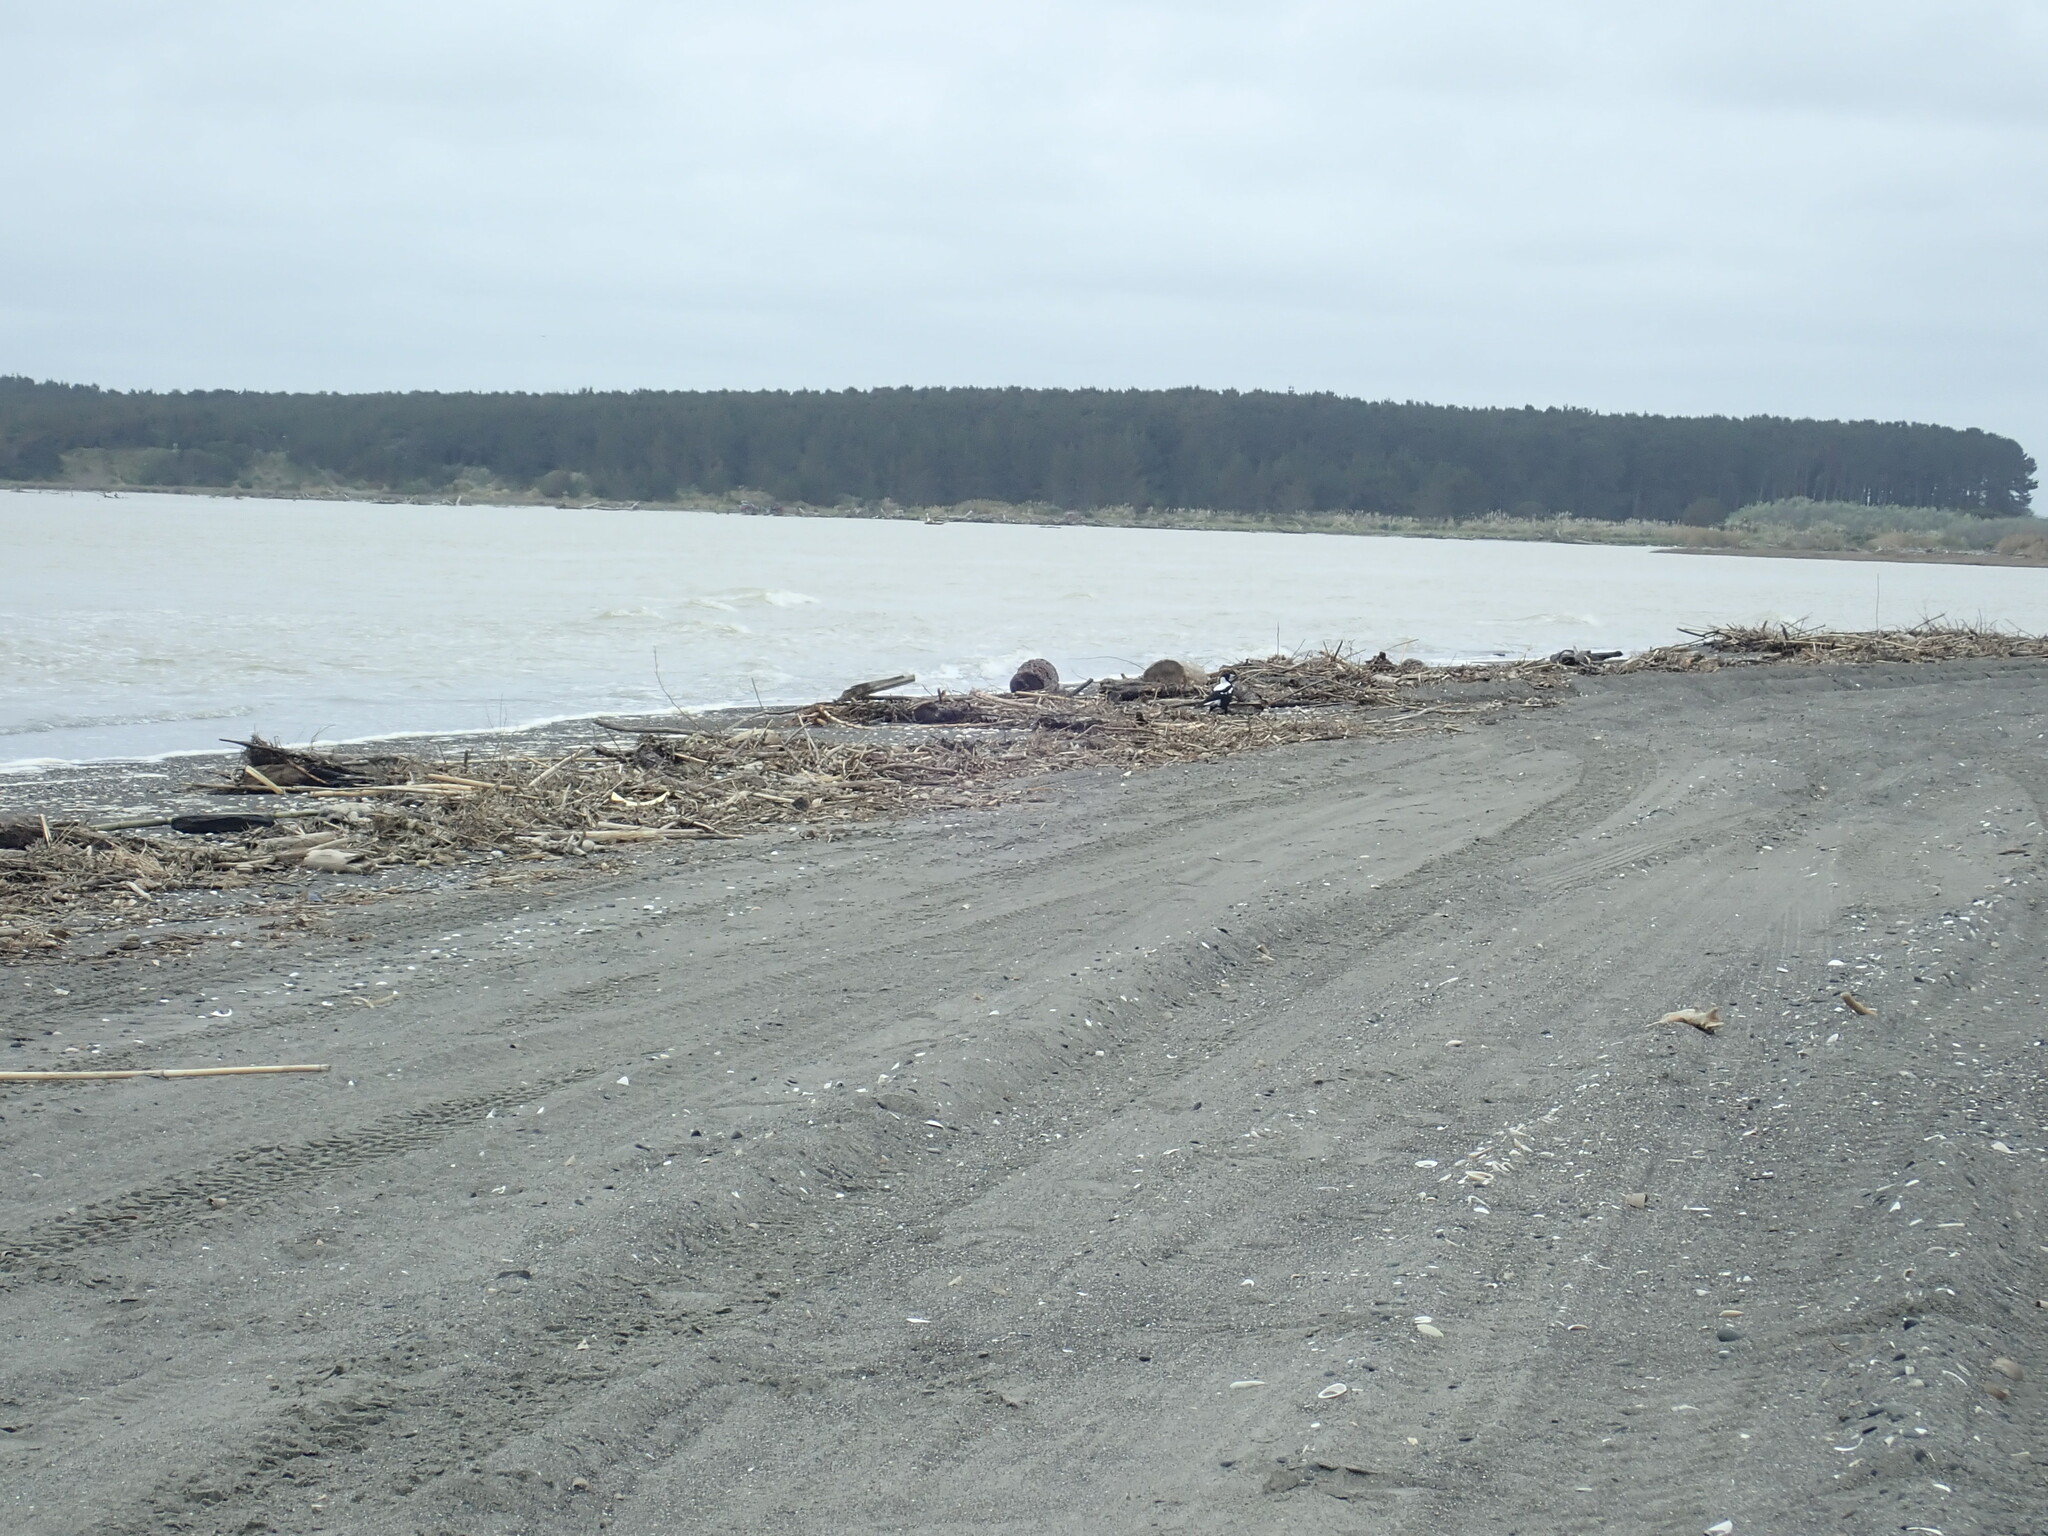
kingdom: Animalia
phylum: Chordata
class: Aves
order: Passeriformes
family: Cracticidae
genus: Gymnorhina
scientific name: Gymnorhina tibicen
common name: Australian magpie
